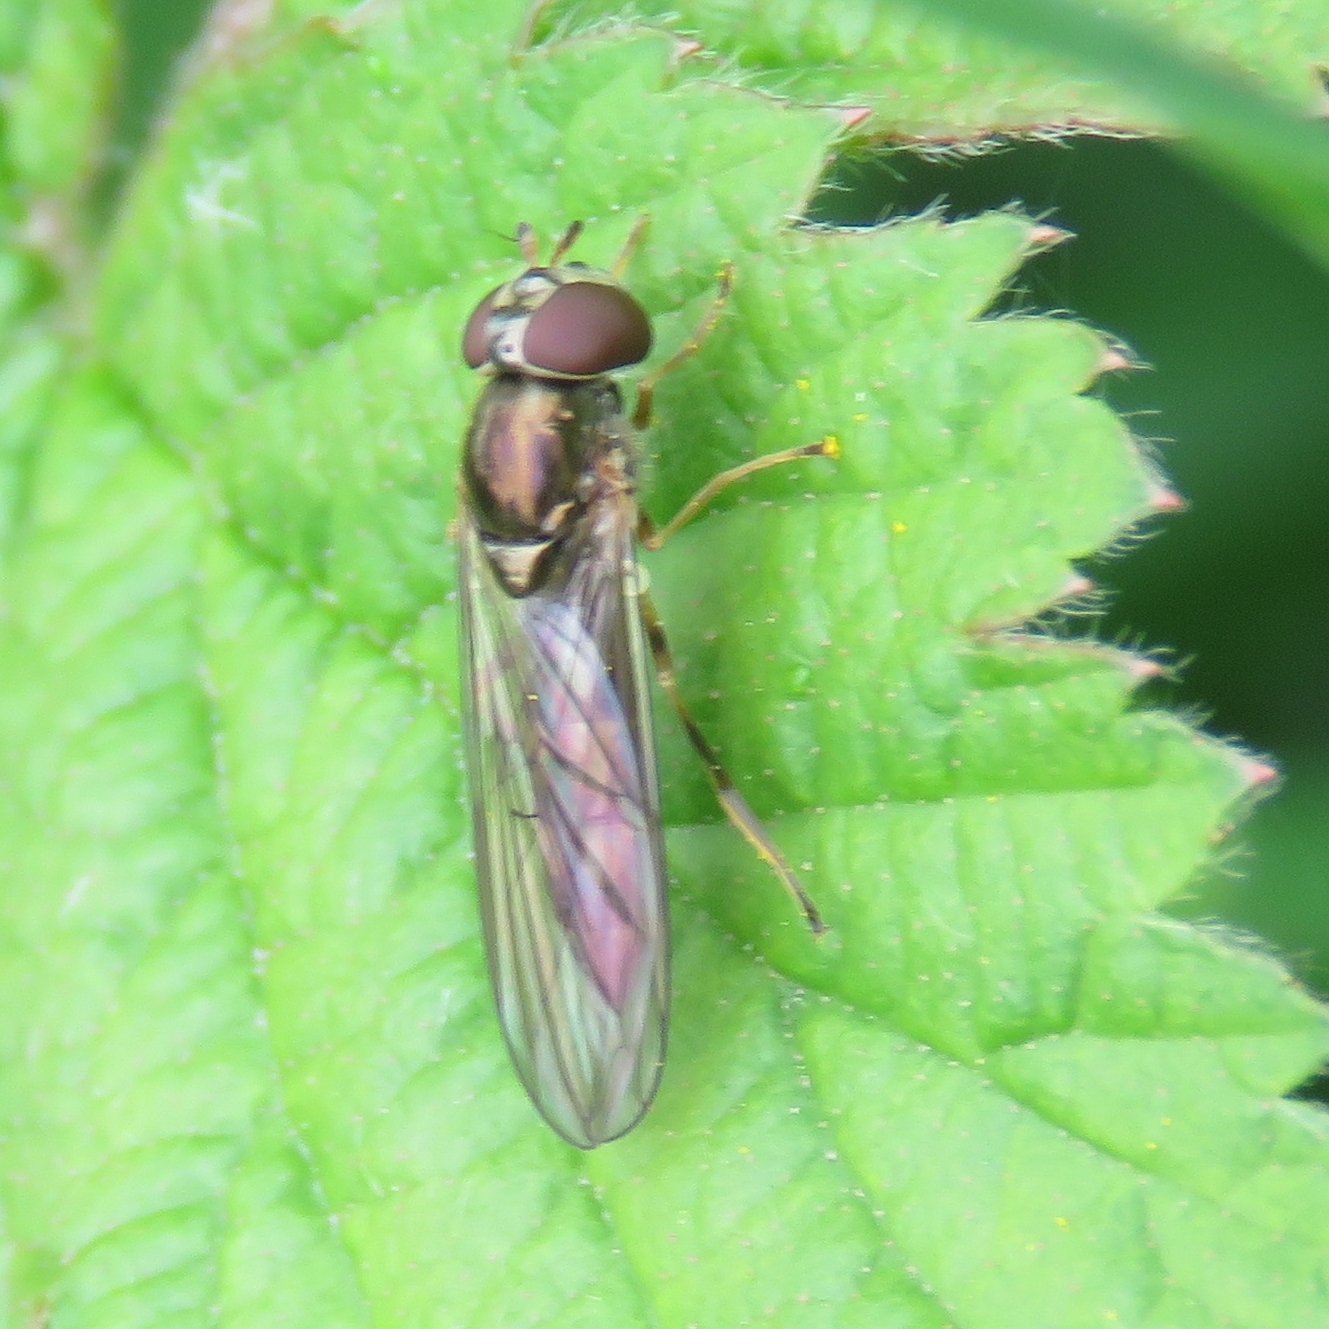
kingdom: Animalia
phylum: Arthropoda
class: Insecta
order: Diptera
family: Syrphidae
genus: Melanostoma
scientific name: Melanostoma scalare
